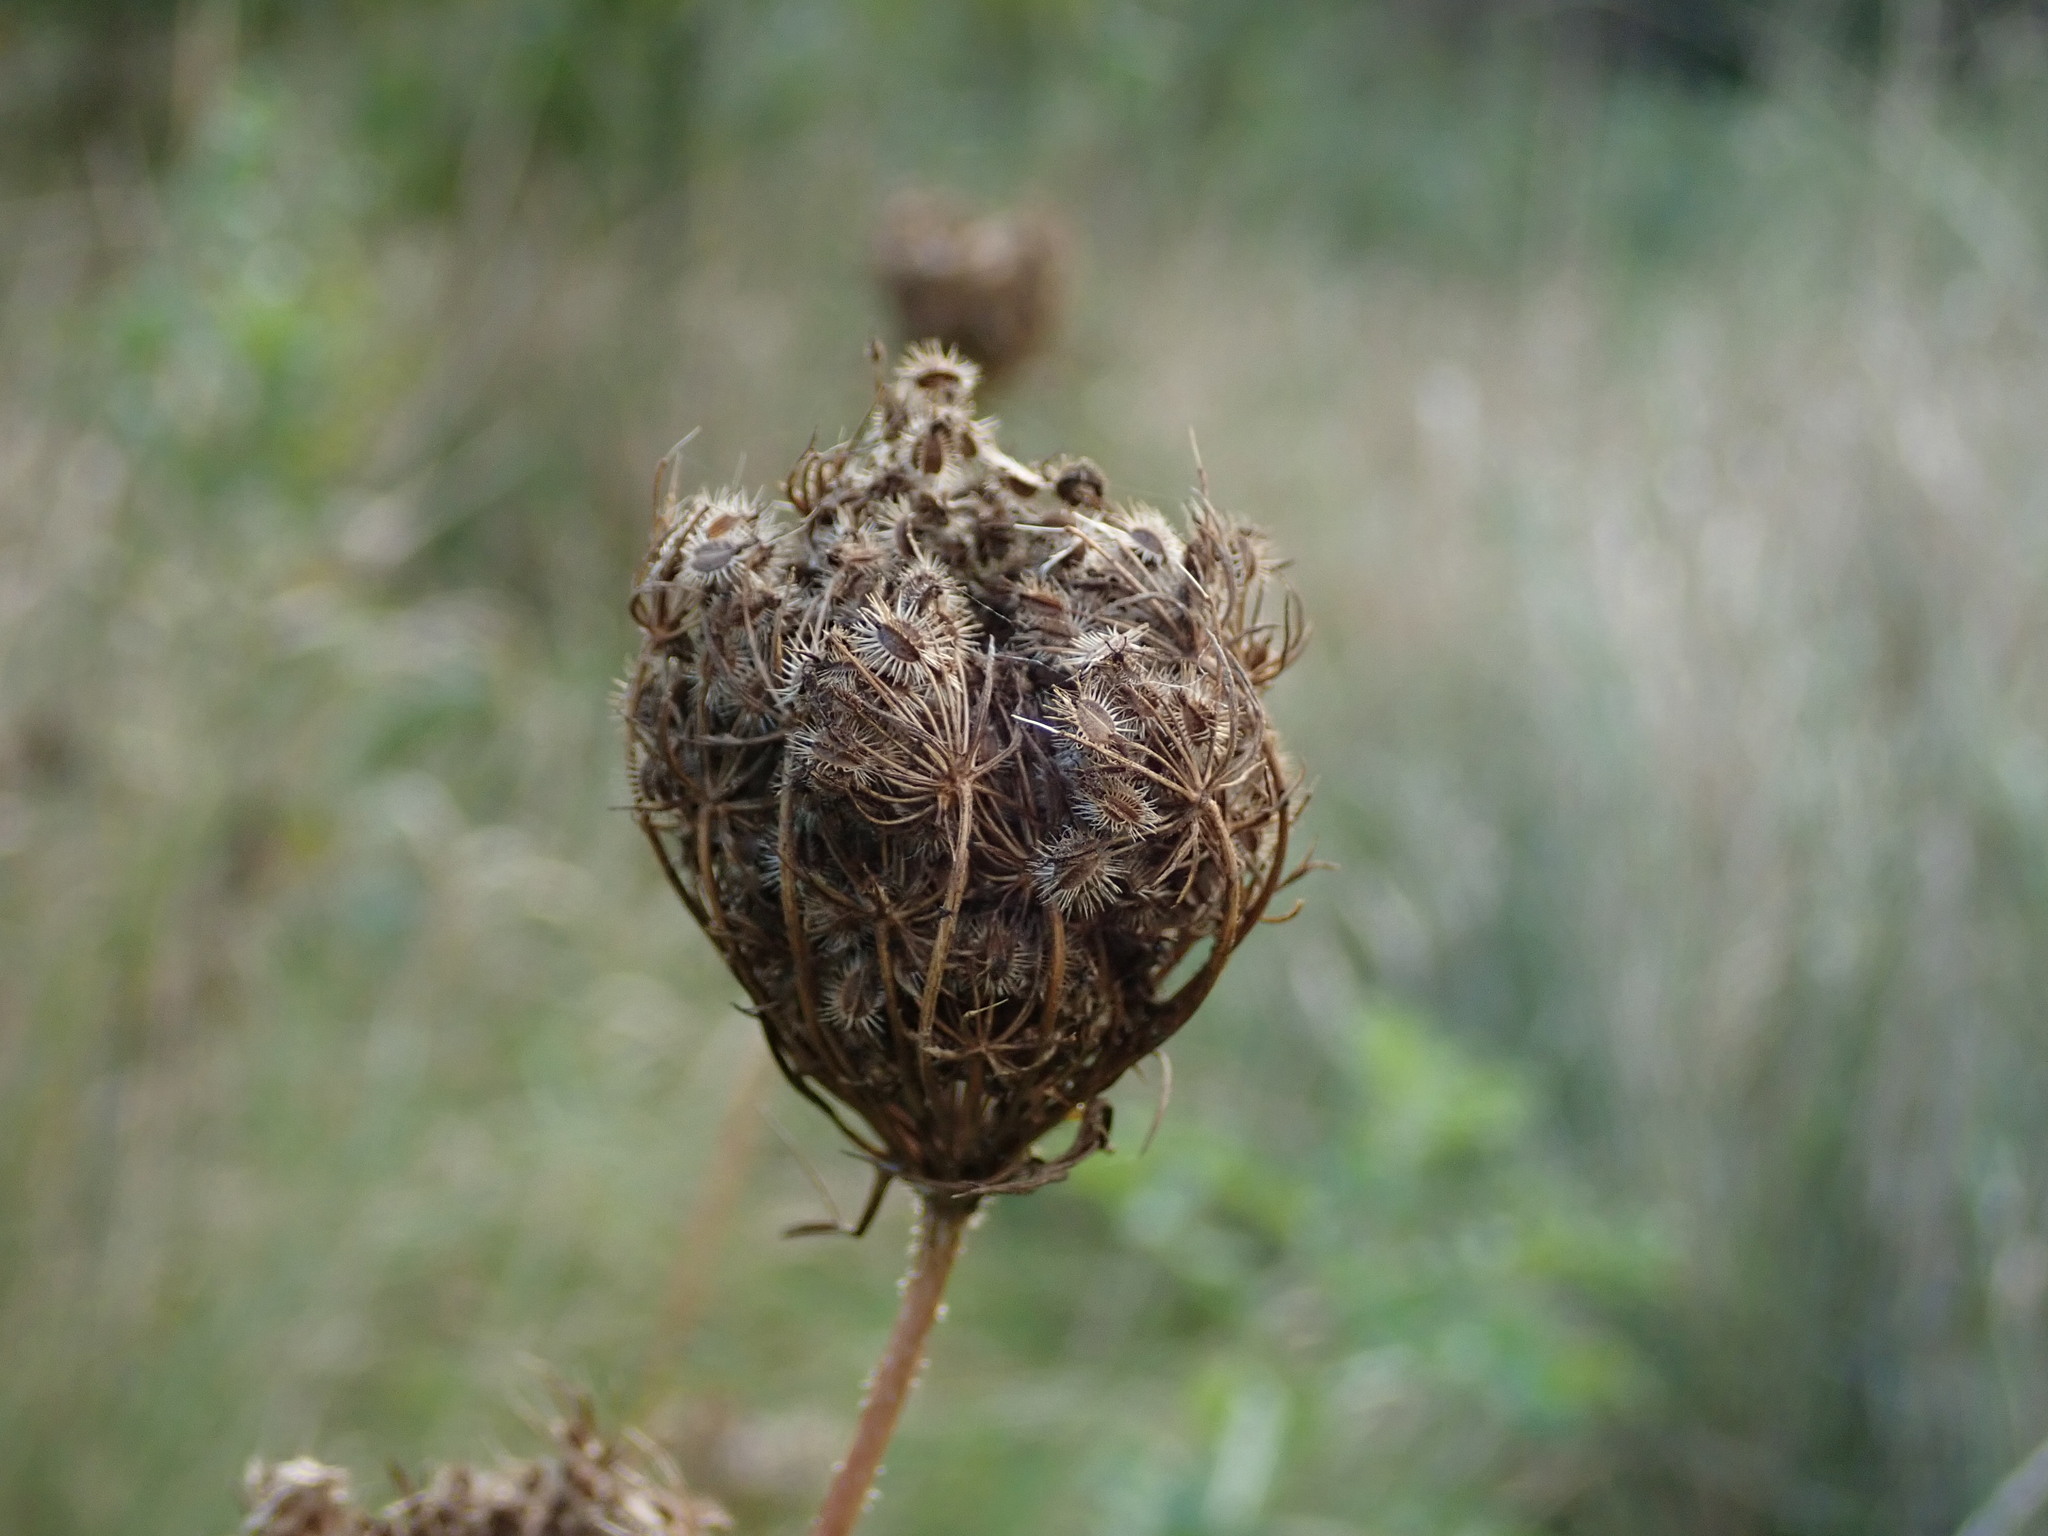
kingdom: Plantae
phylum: Tracheophyta
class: Magnoliopsida
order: Apiales
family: Apiaceae
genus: Daucus
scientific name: Daucus carota
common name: Wild carrot
